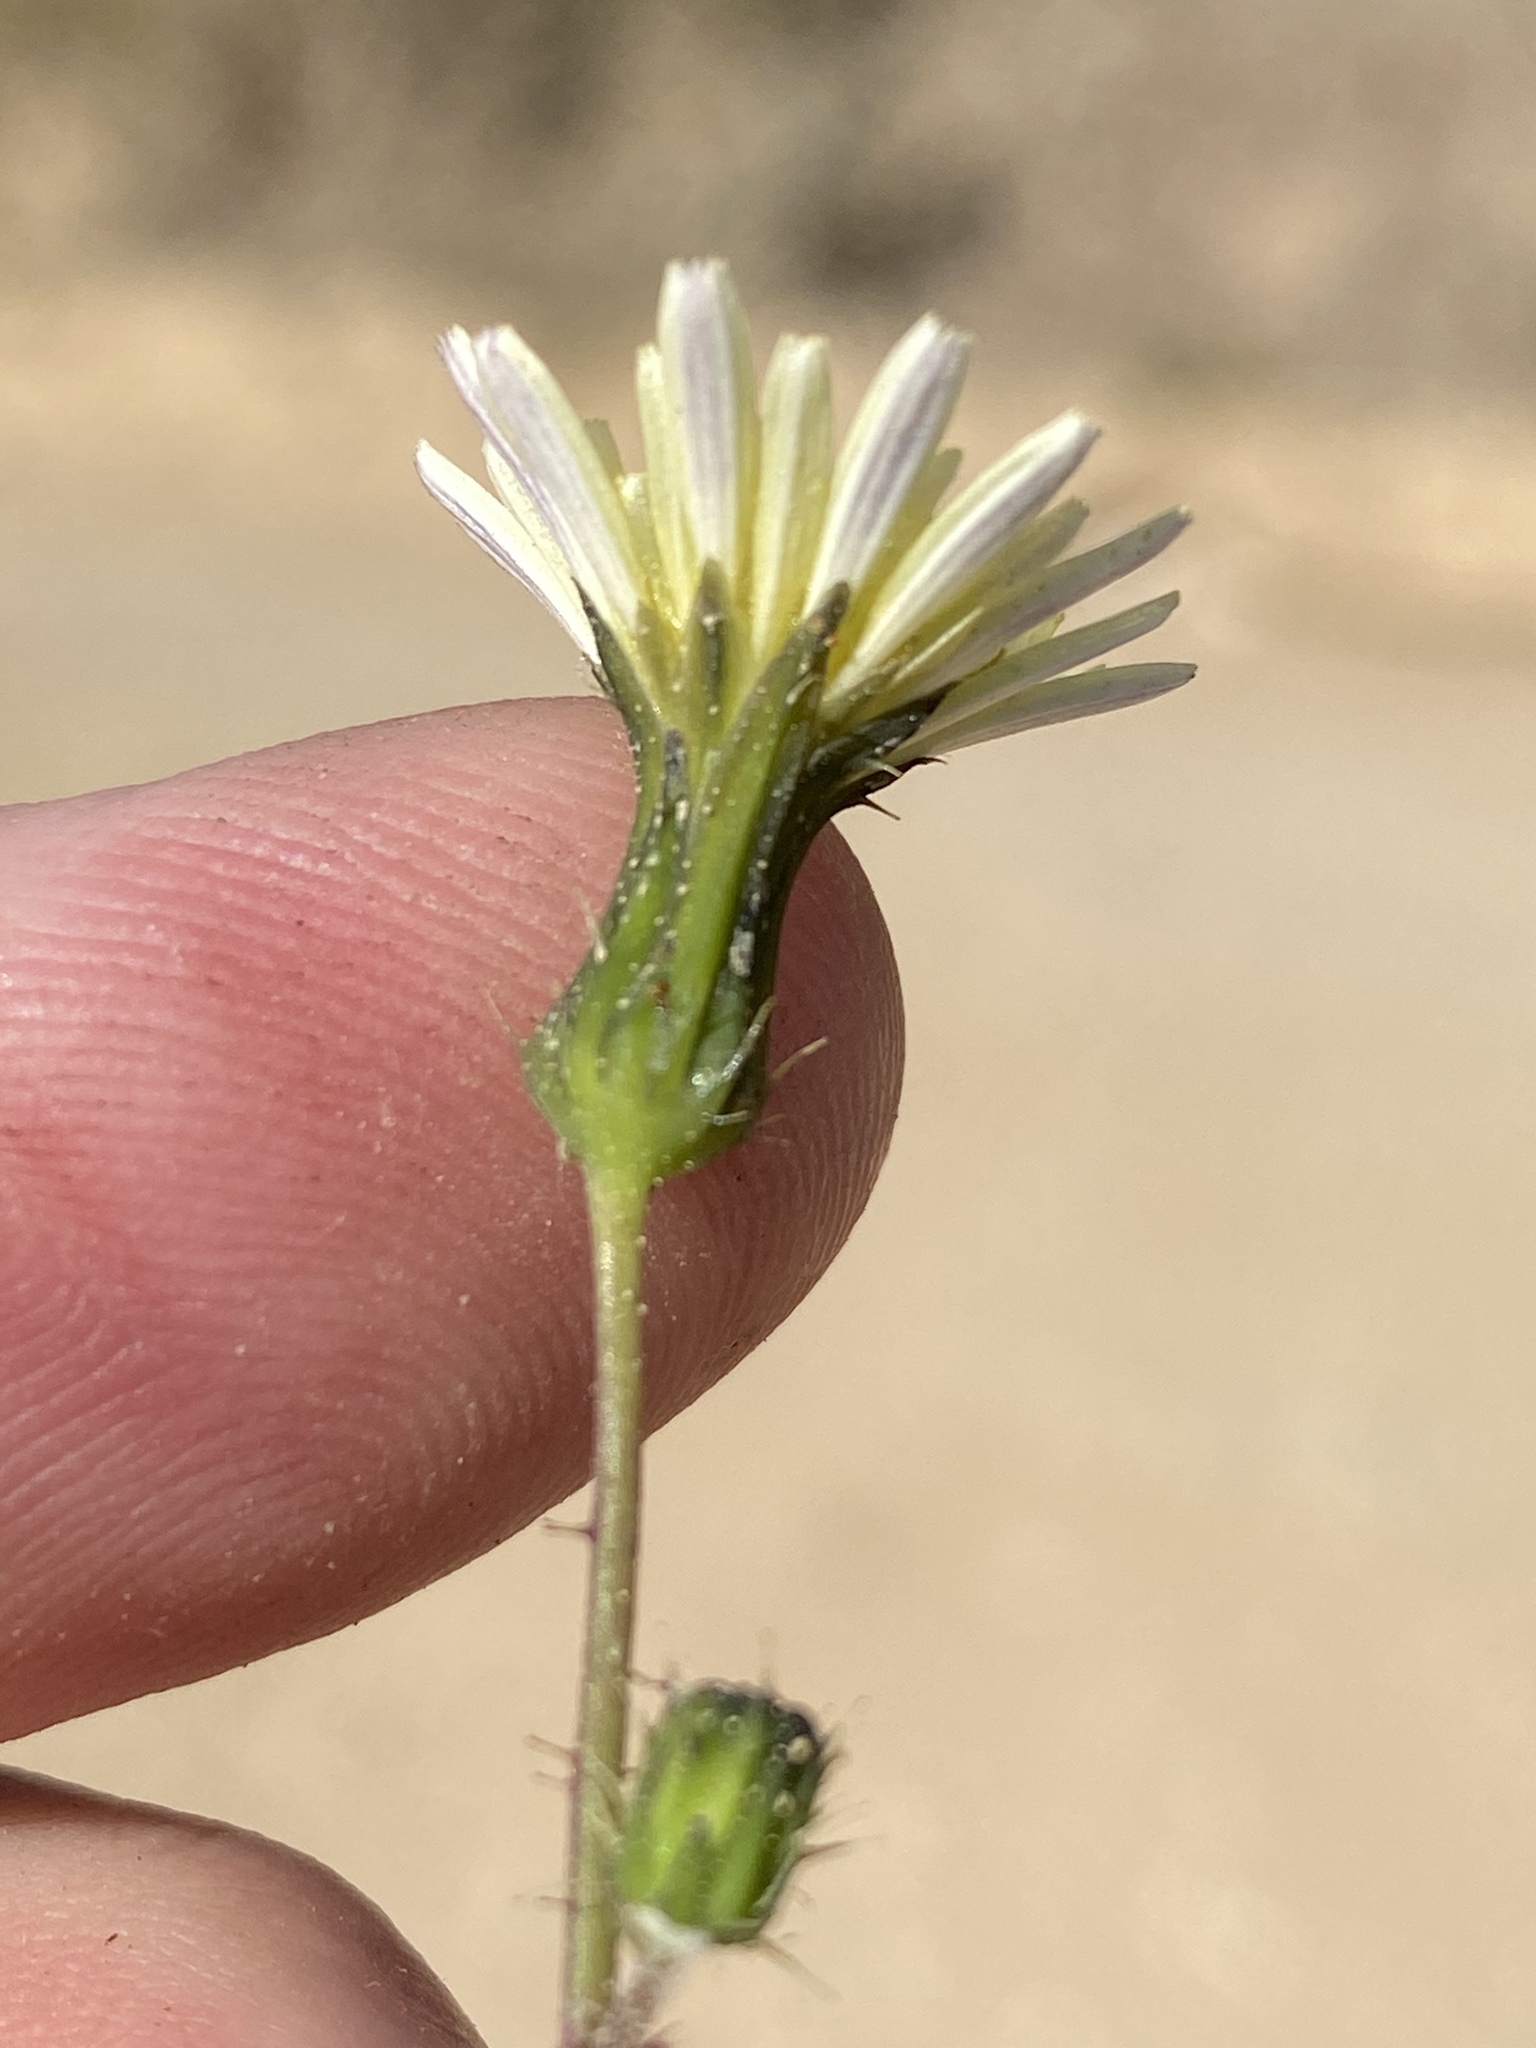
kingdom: Plantae
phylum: Tracheophyta
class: Magnoliopsida
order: Asterales
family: Asteraceae
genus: Sonchus
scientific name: Sonchus oleraceus
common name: Common sowthistle
